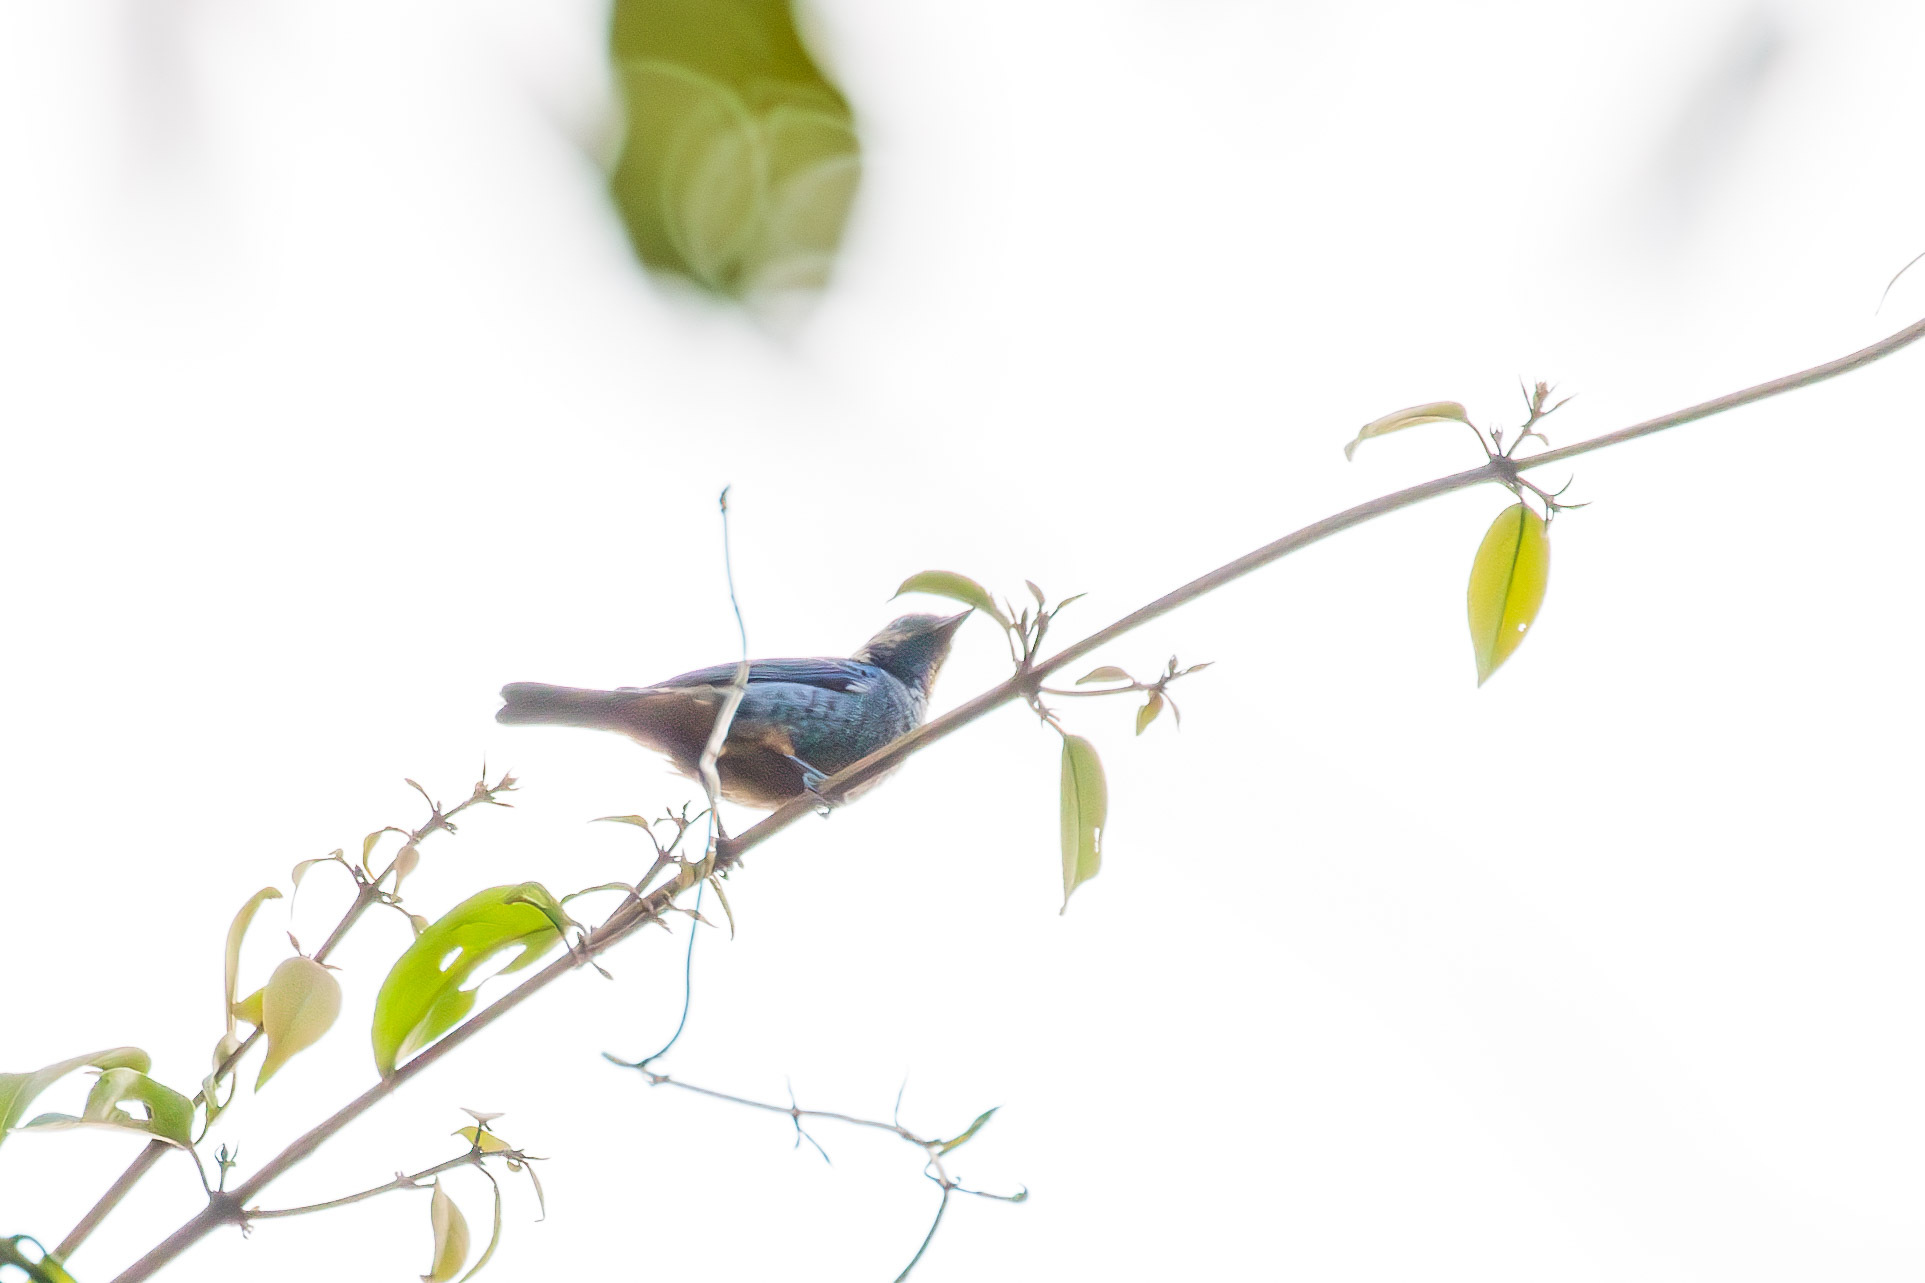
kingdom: Animalia
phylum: Chordata
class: Aves
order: Passeriformes
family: Thraupidae
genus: Tangara
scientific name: Tangara velia
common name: Opal-rumped tanager
